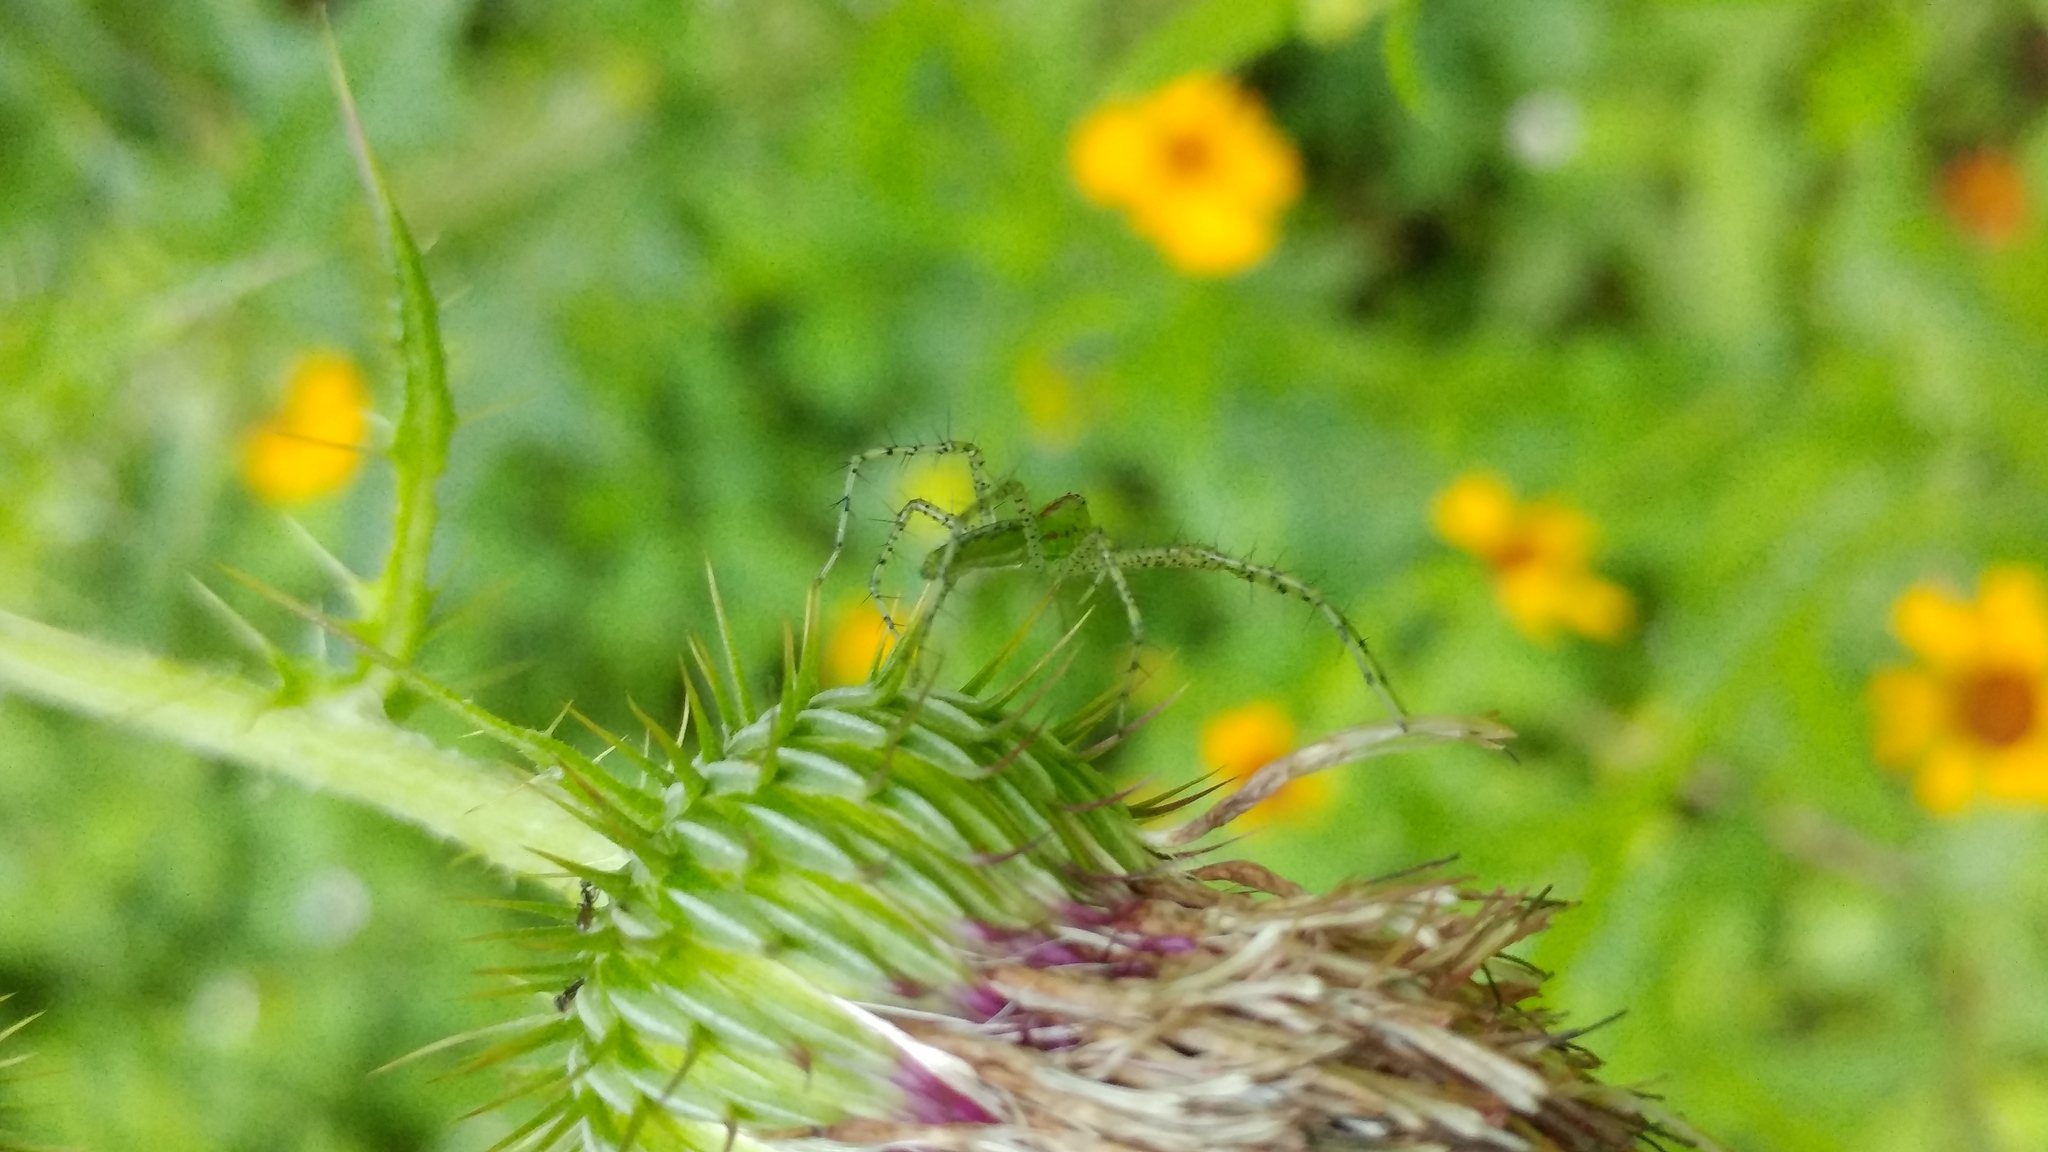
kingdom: Animalia
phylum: Arthropoda
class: Arachnida
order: Araneae
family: Oxyopidae
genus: Peucetia
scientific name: Peucetia viridans
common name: Lynx spiders
